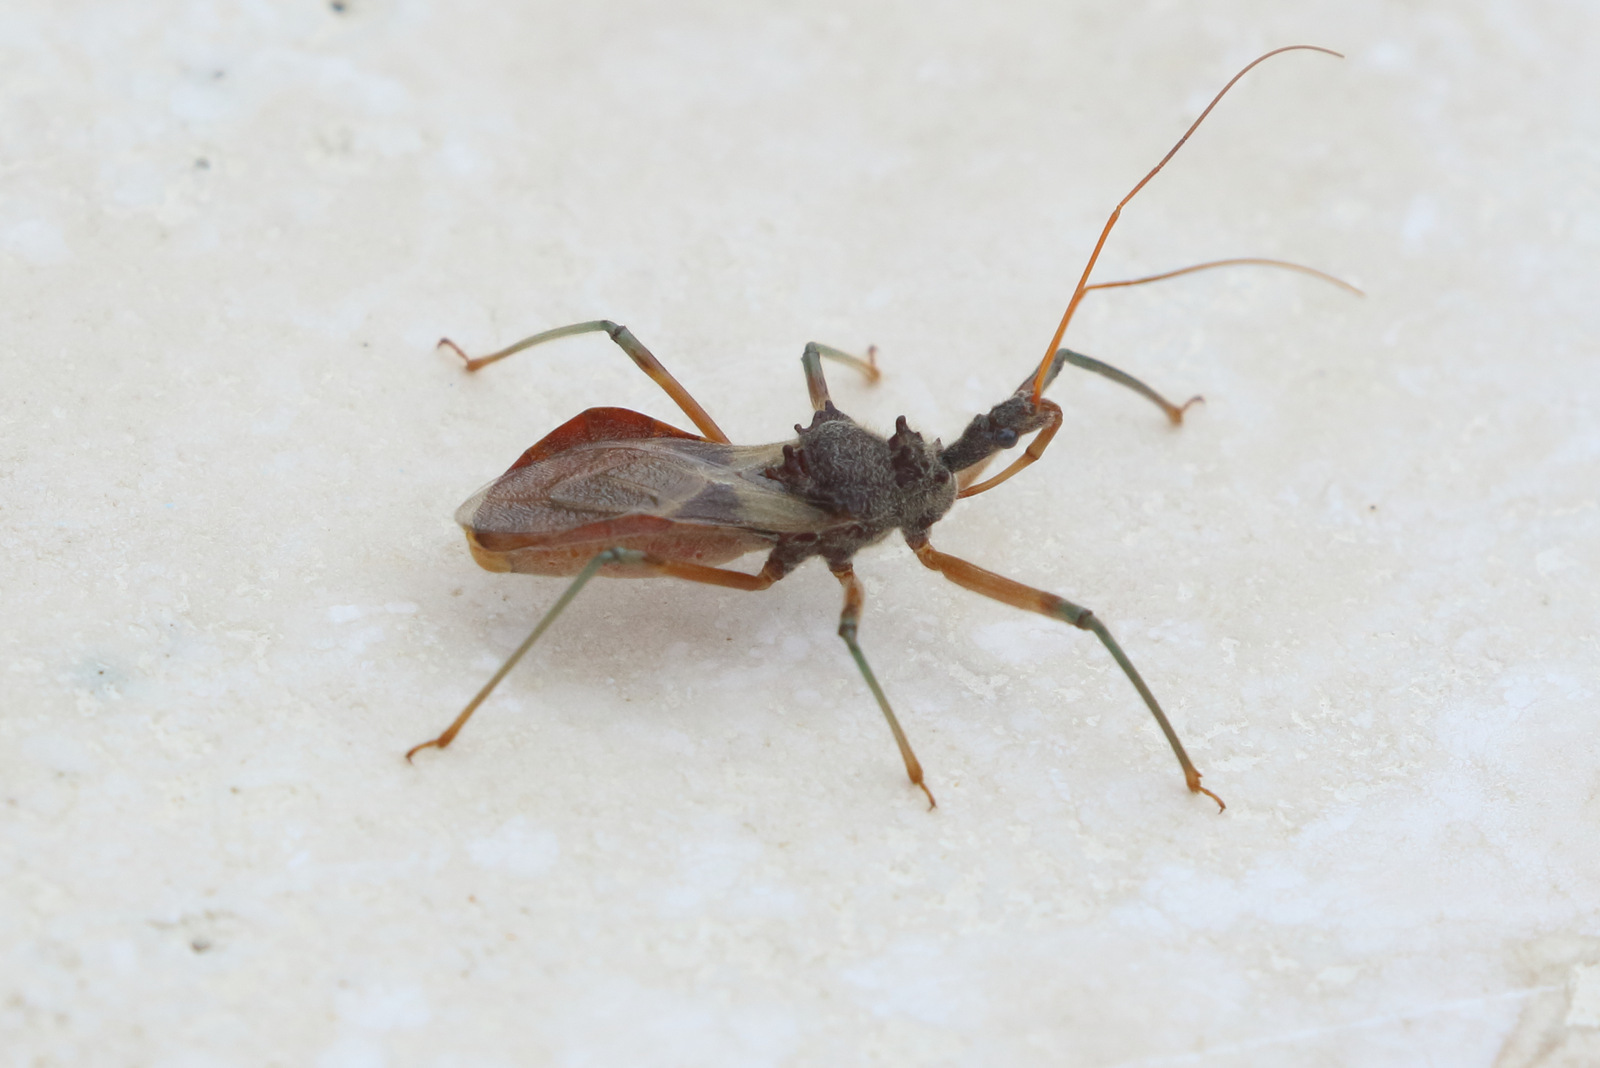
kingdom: Animalia
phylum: Arthropoda
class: Insecta
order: Hemiptera
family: Reduviidae
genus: Pristhesancus
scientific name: Pristhesancus plagipennis
